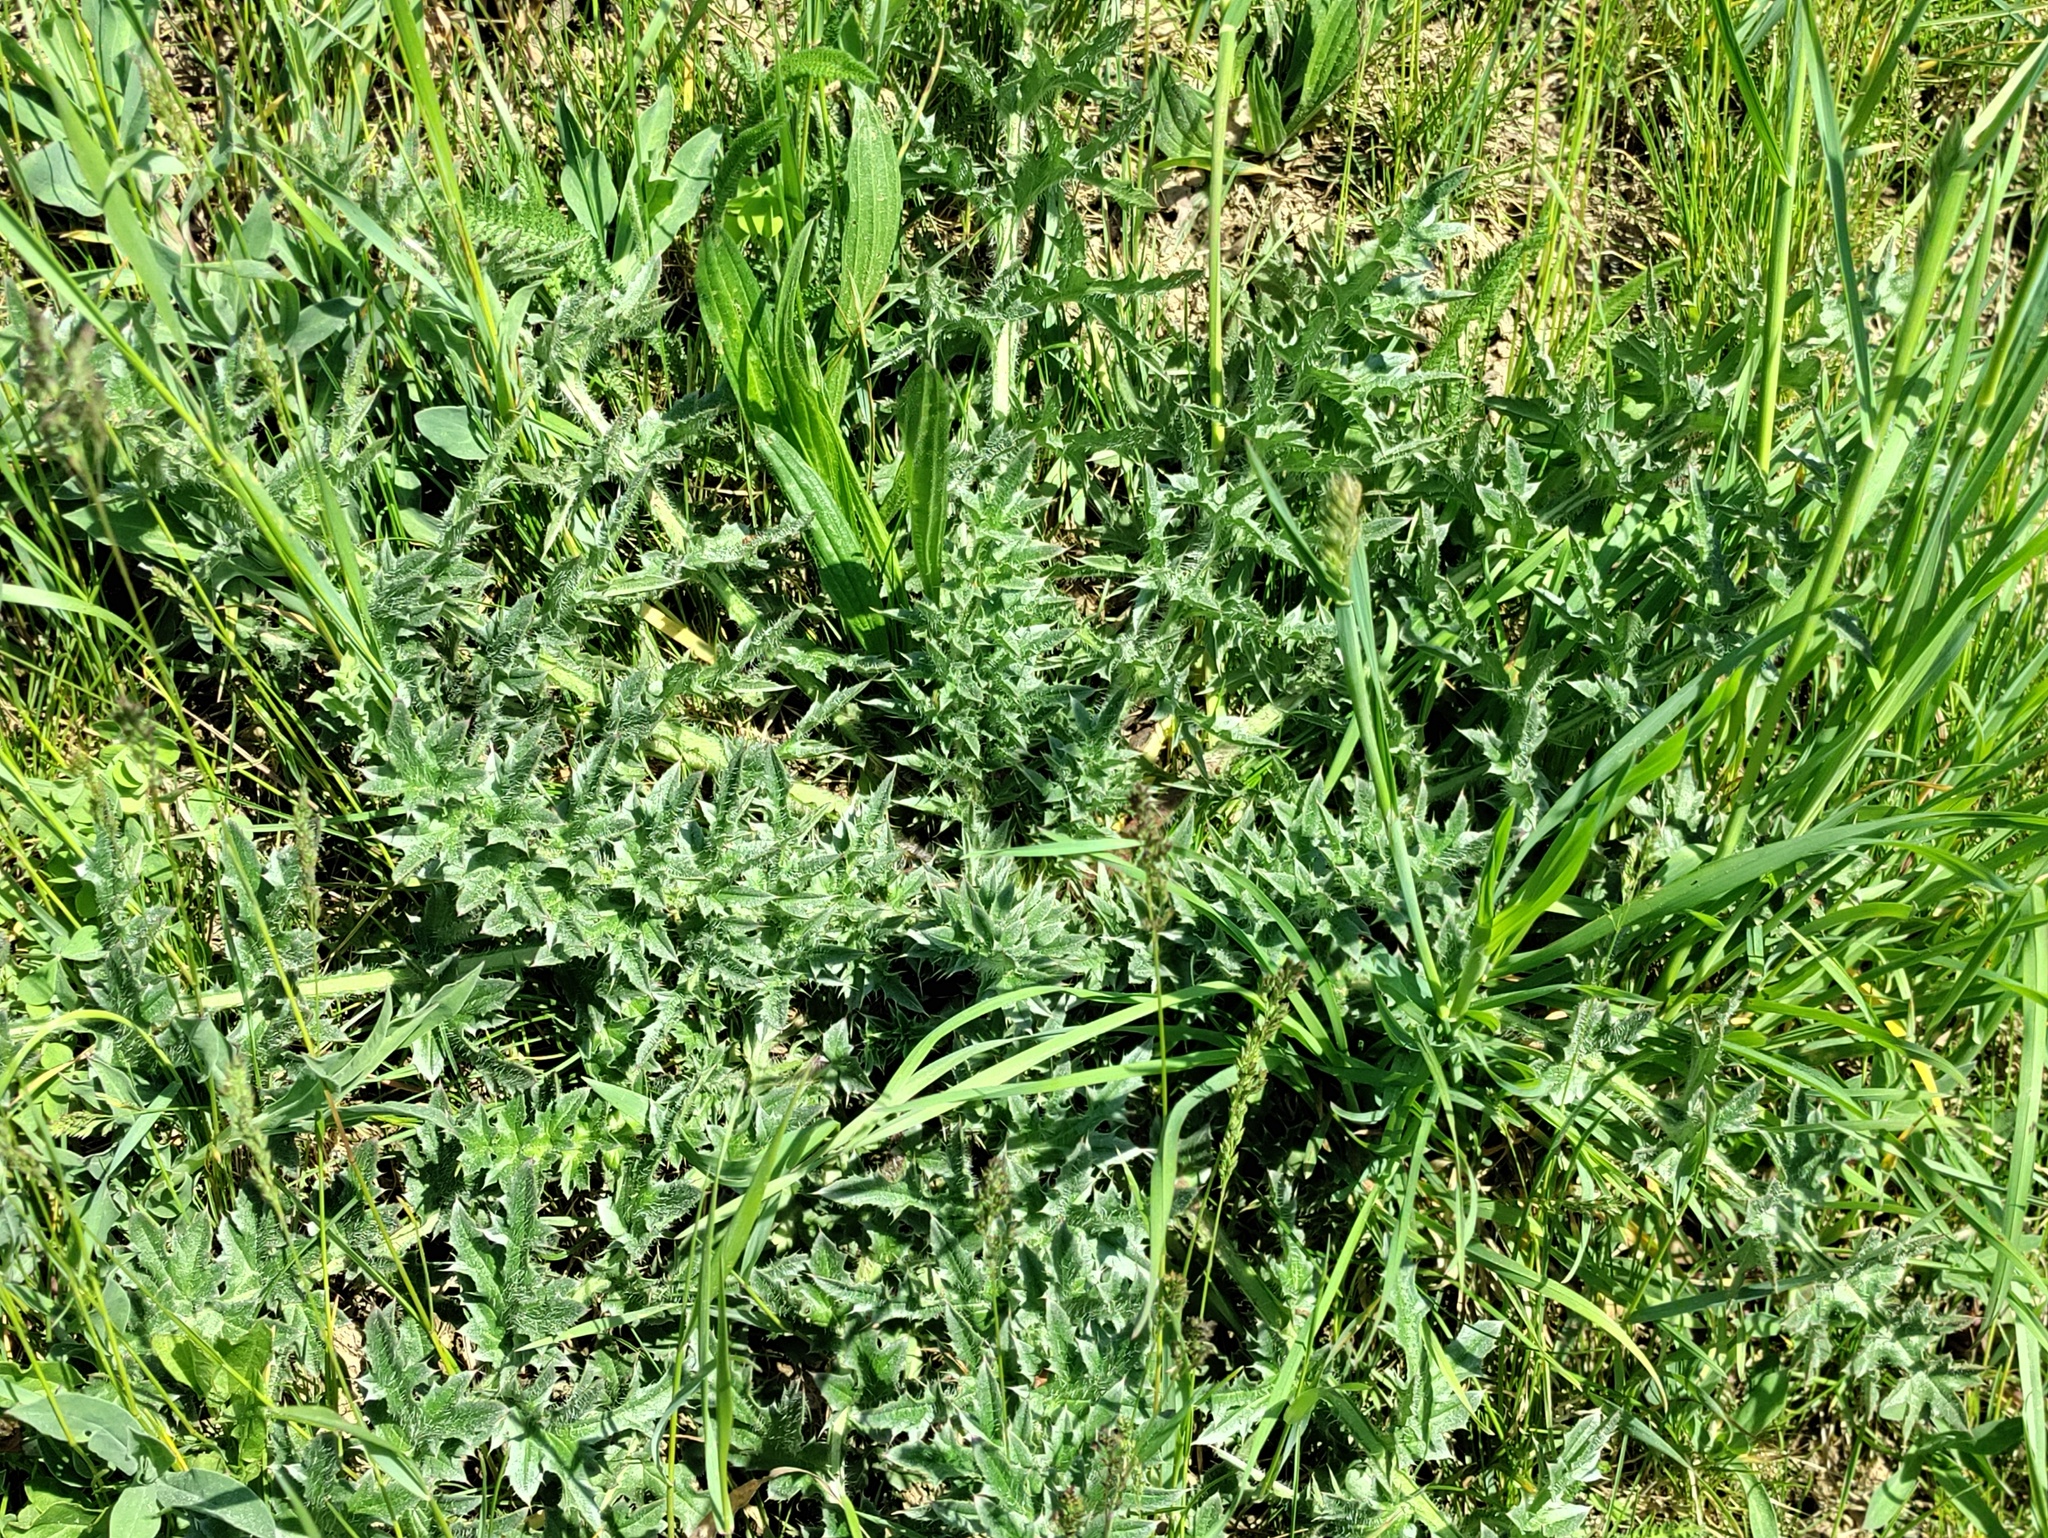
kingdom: Plantae
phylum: Tracheophyta
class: Magnoliopsida
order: Asterales
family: Asteraceae
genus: Carduus
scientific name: Carduus acanthoides
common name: Plumeless thistle
